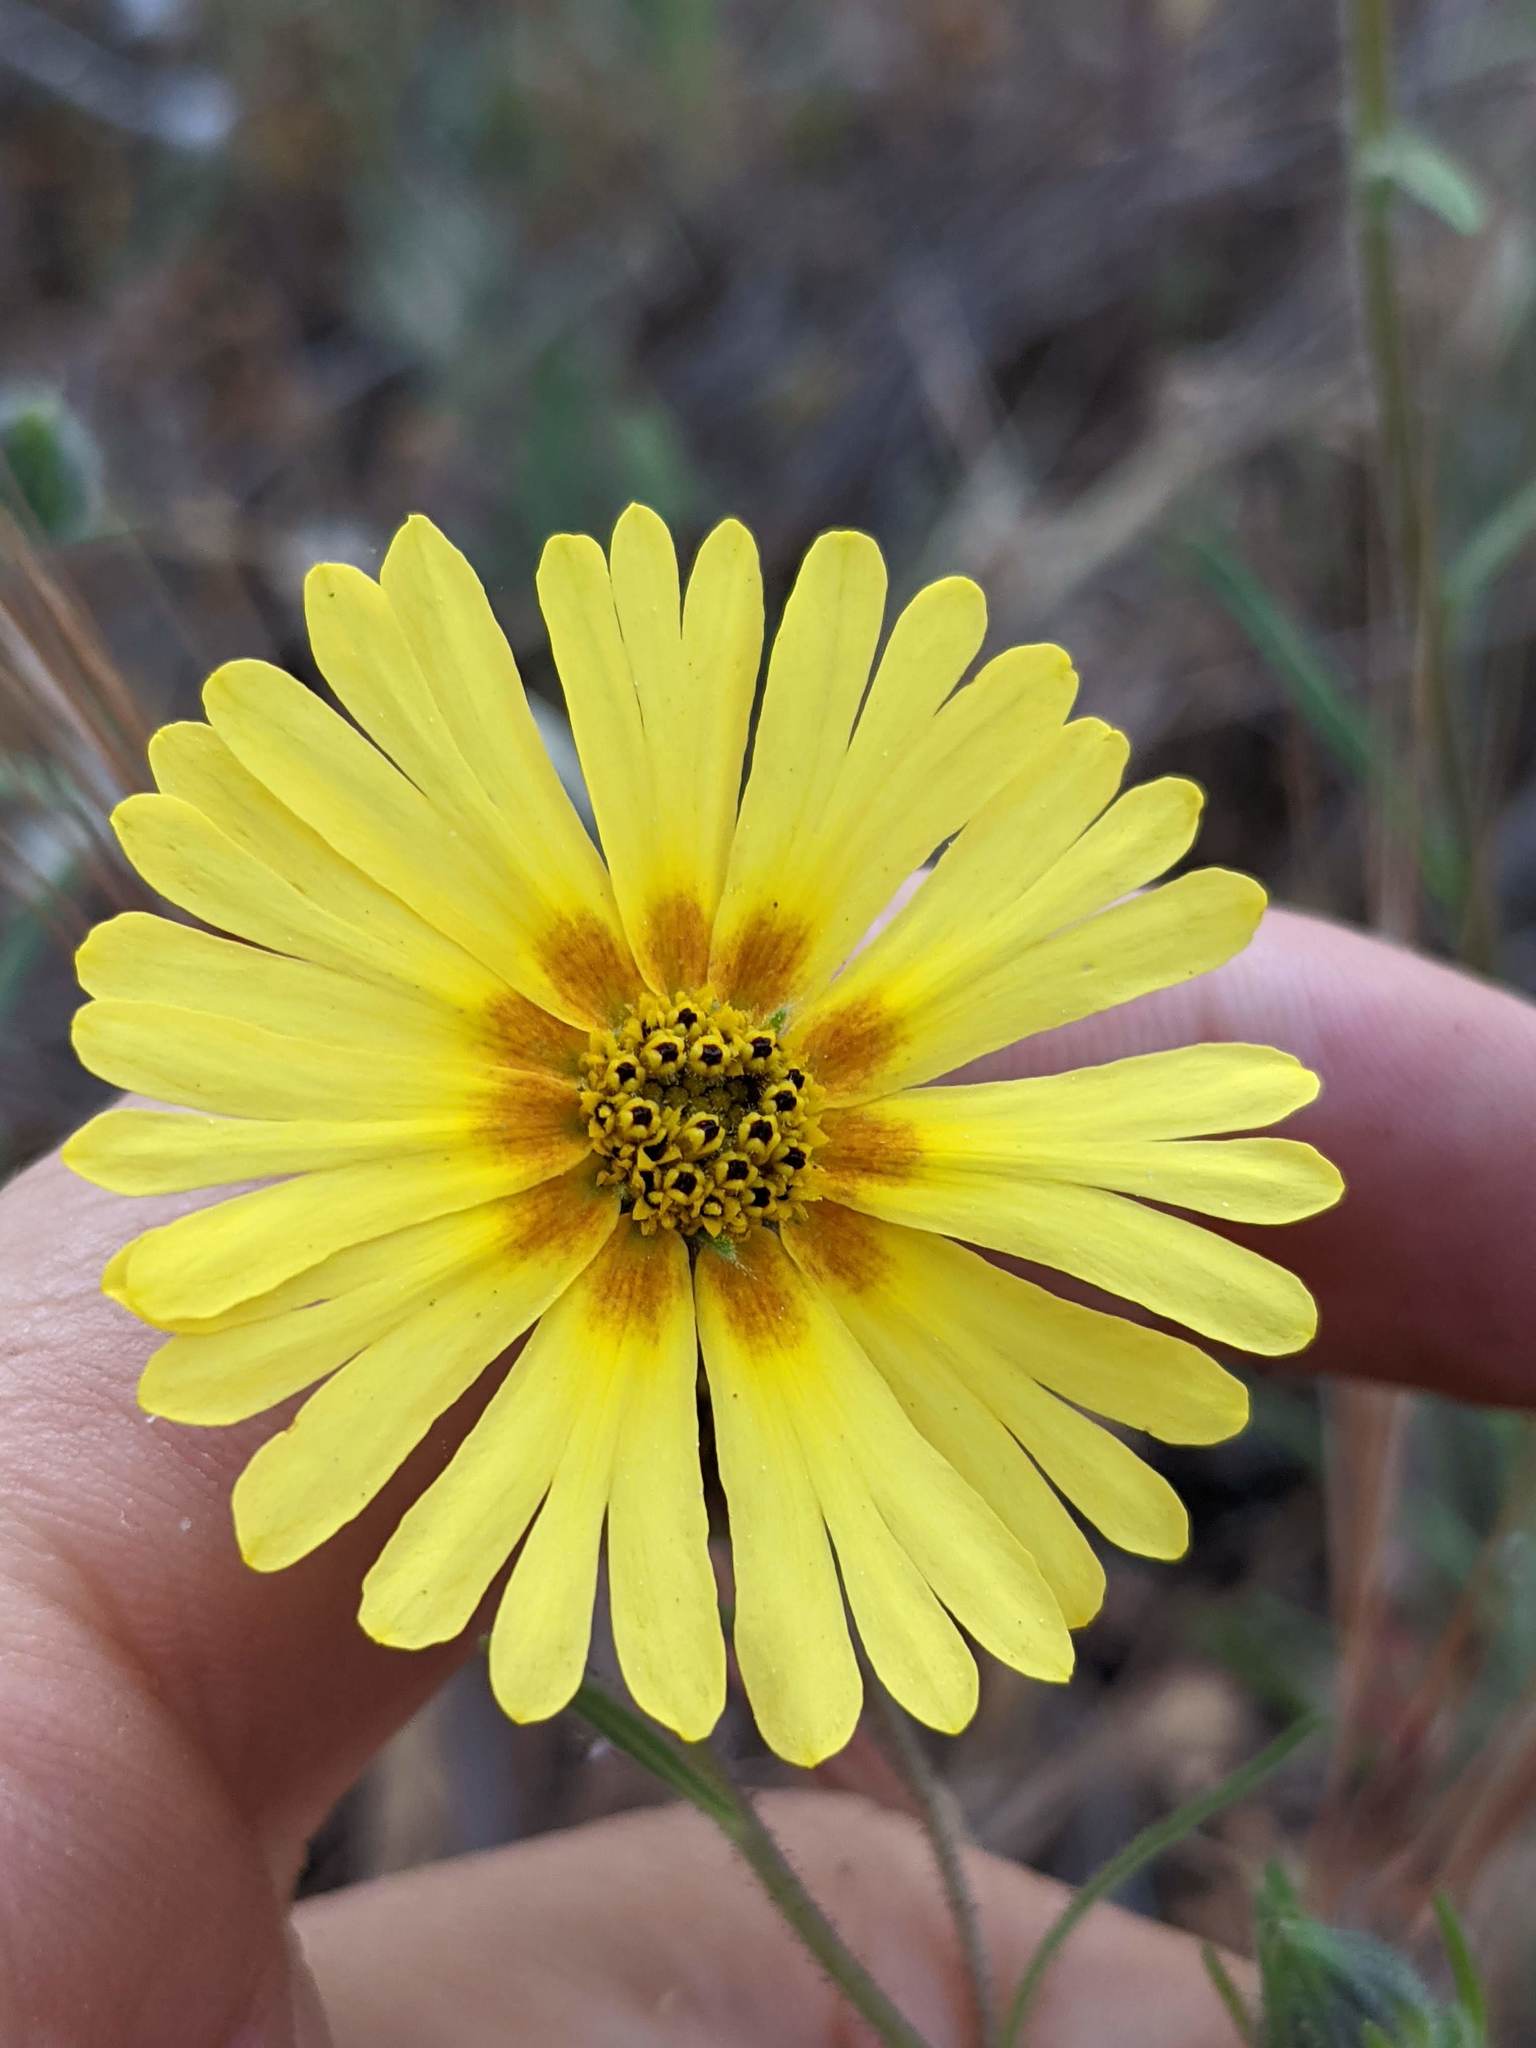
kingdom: Plantae
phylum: Tracheophyta
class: Magnoliopsida
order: Asterales
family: Asteraceae
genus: Madia
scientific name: Madia elegans
